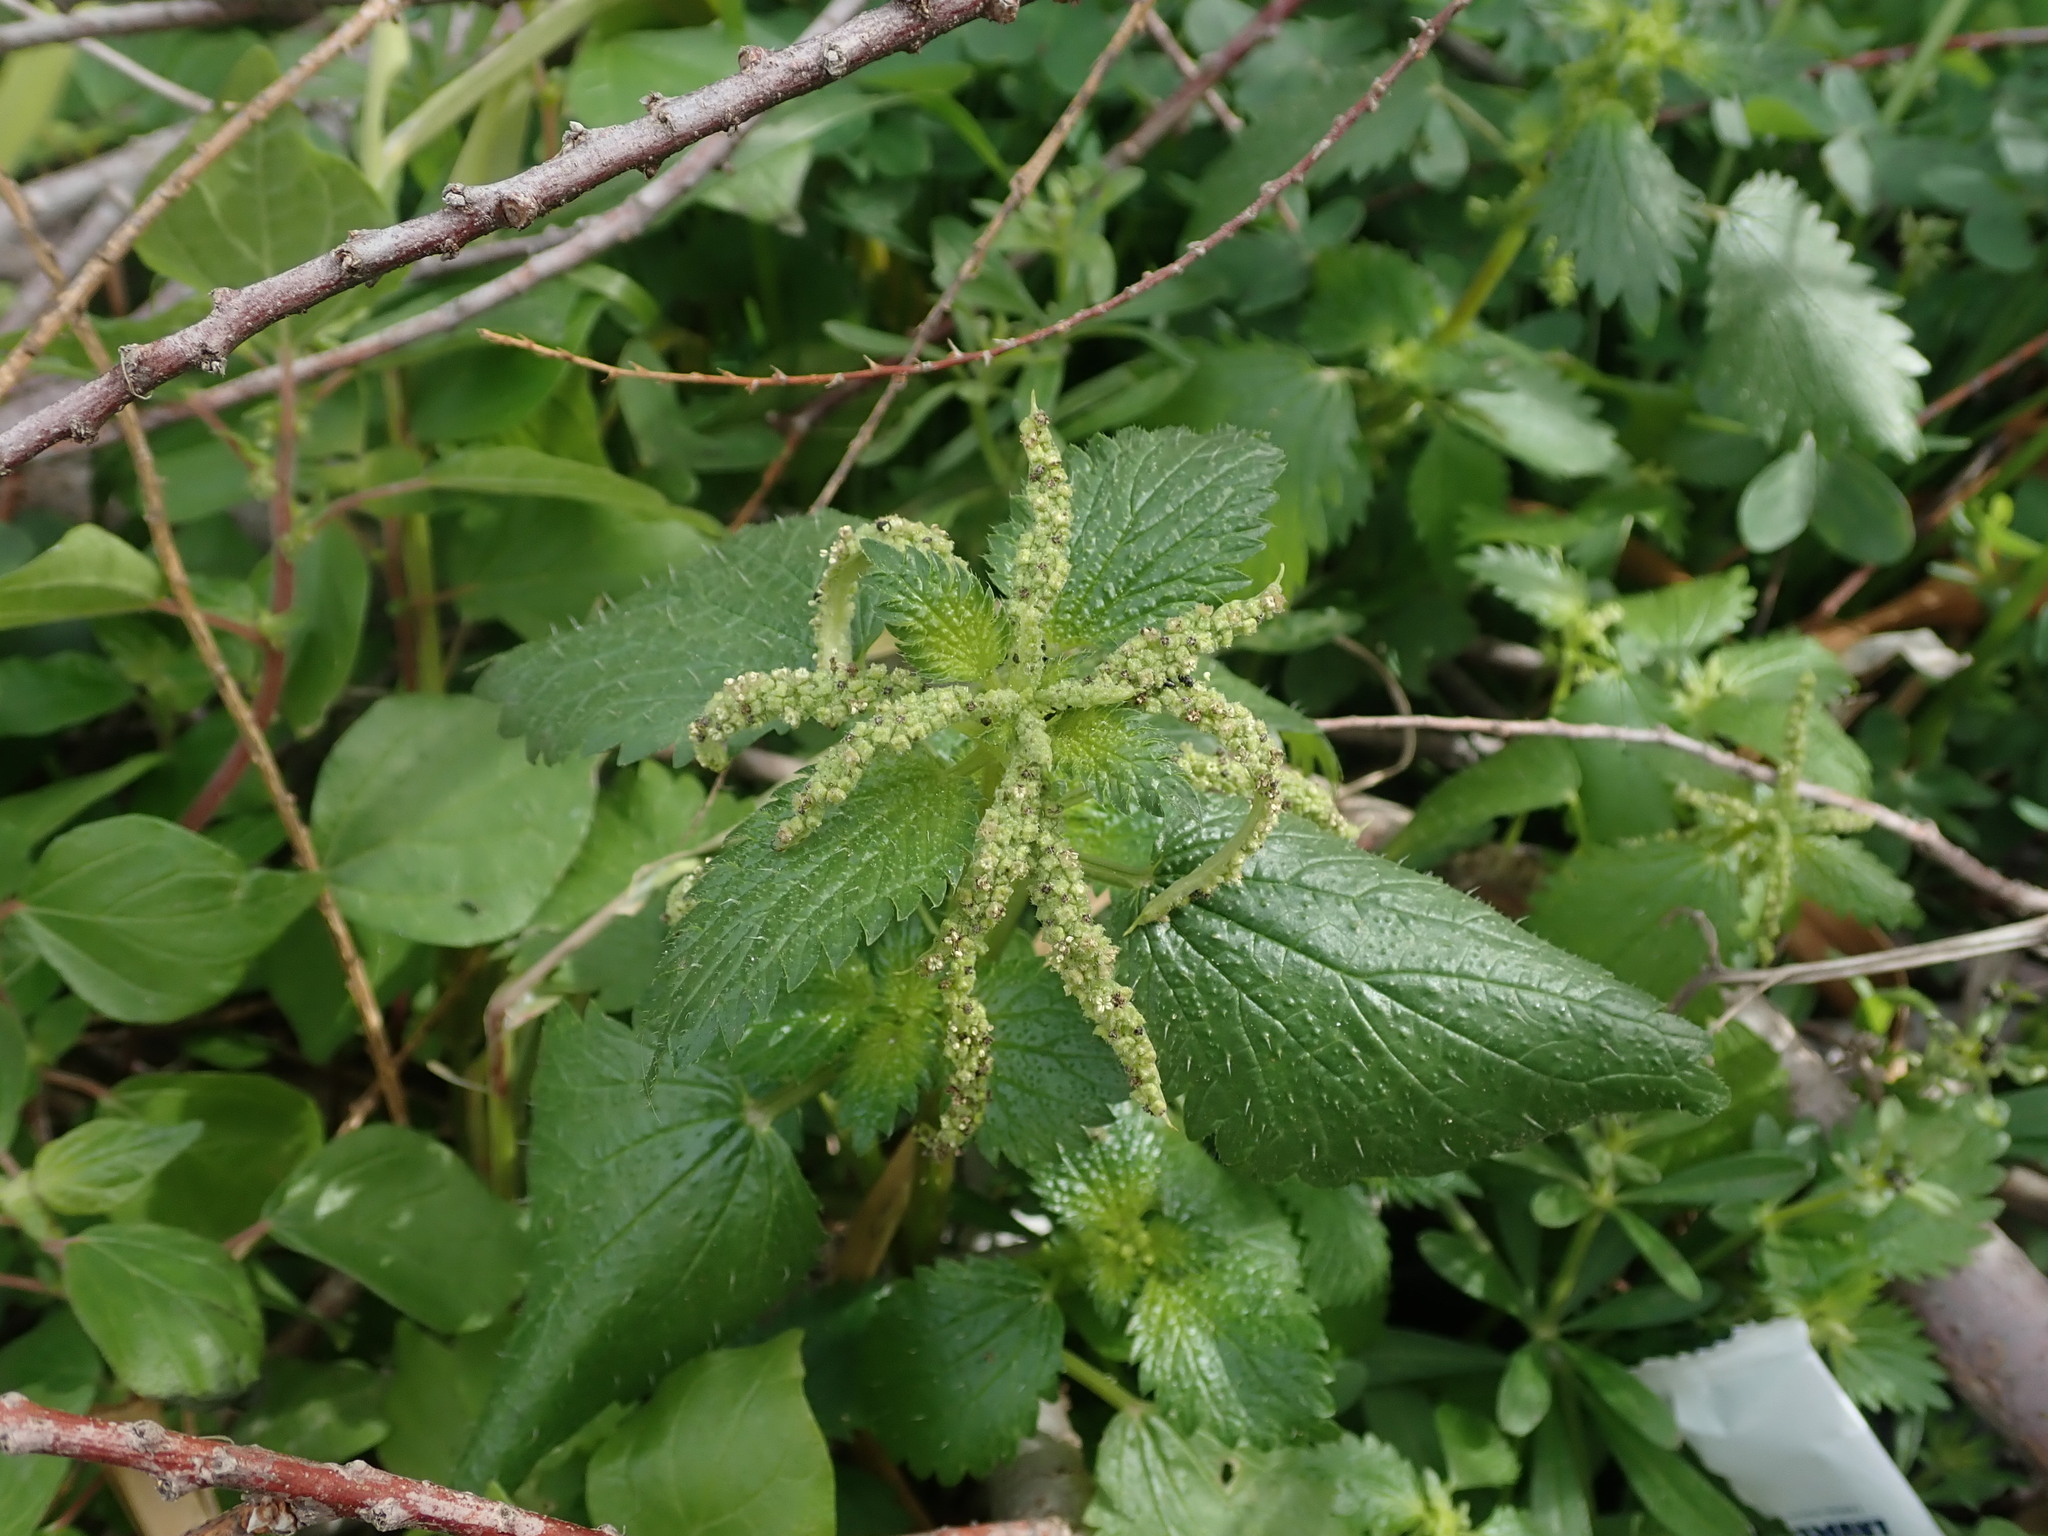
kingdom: Plantae
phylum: Tracheophyta
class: Magnoliopsida
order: Rosales
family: Urticaceae
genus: Urtica
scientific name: Urtica membranacea
